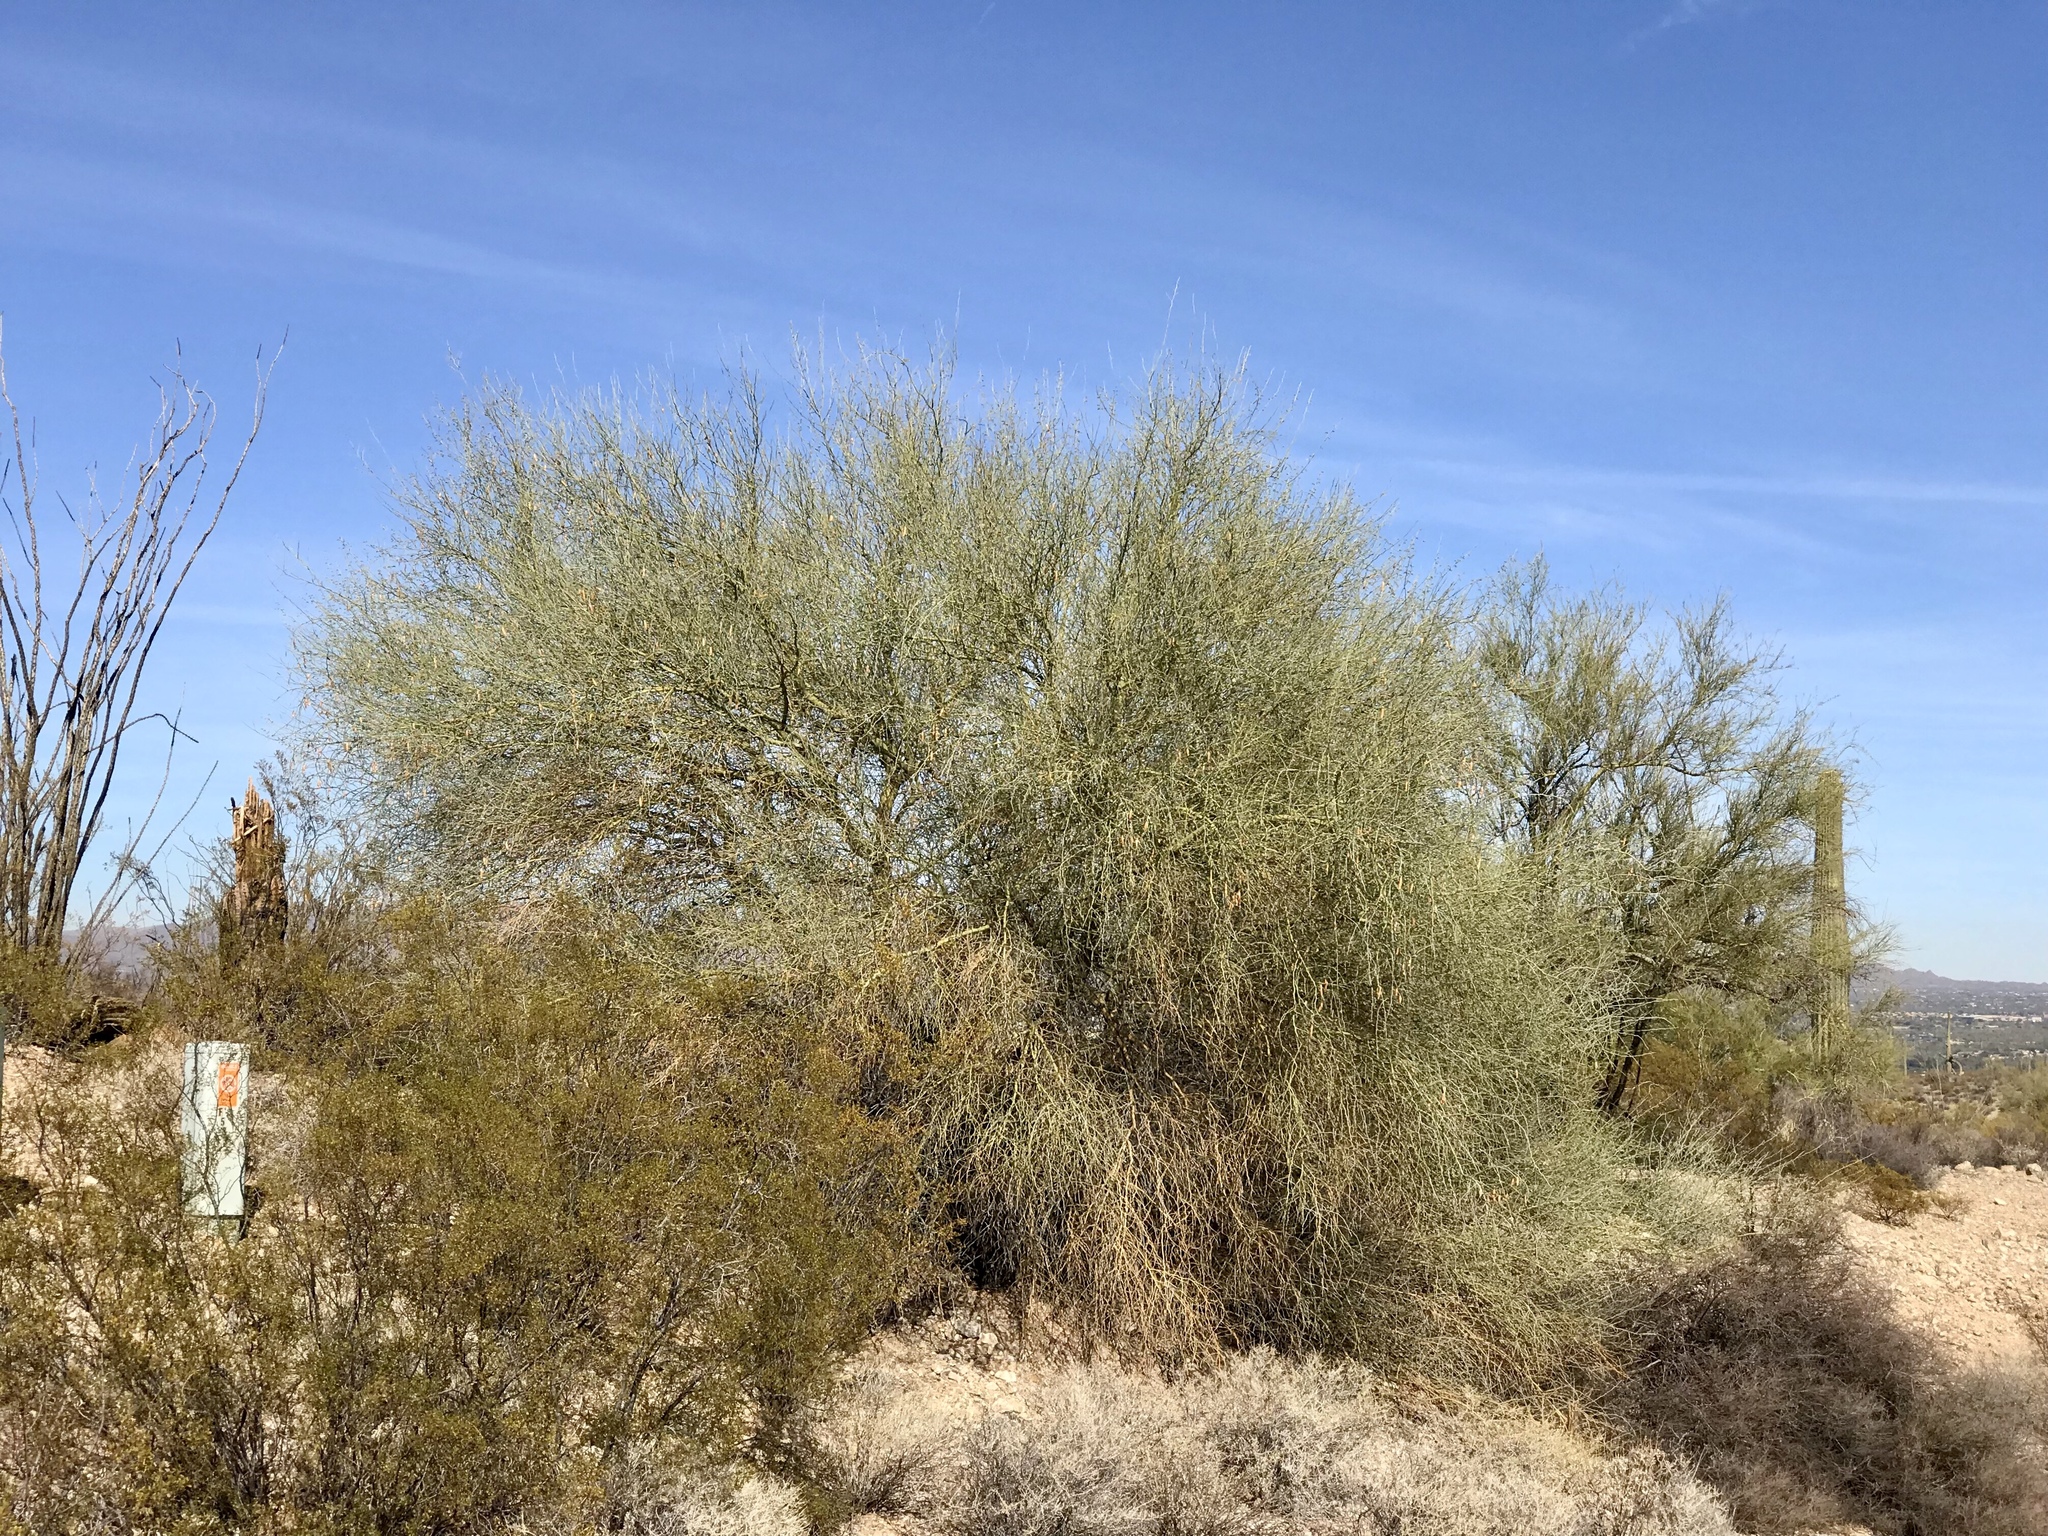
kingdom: Plantae
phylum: Tracheophyta
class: Magnoliopsida
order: Fabales
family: Fabaceae
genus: Parkinsonia
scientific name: Parkinsonia florida
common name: Blue paloverde
